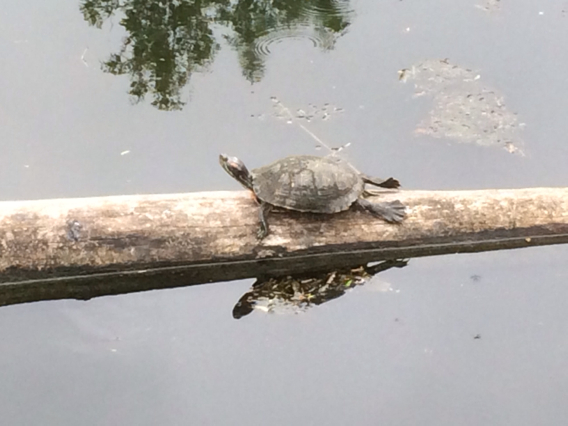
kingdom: Animalia
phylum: Chordata
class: Testudines
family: Emydidae
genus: Trachemys
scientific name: Trachemys scripta
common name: Slider
